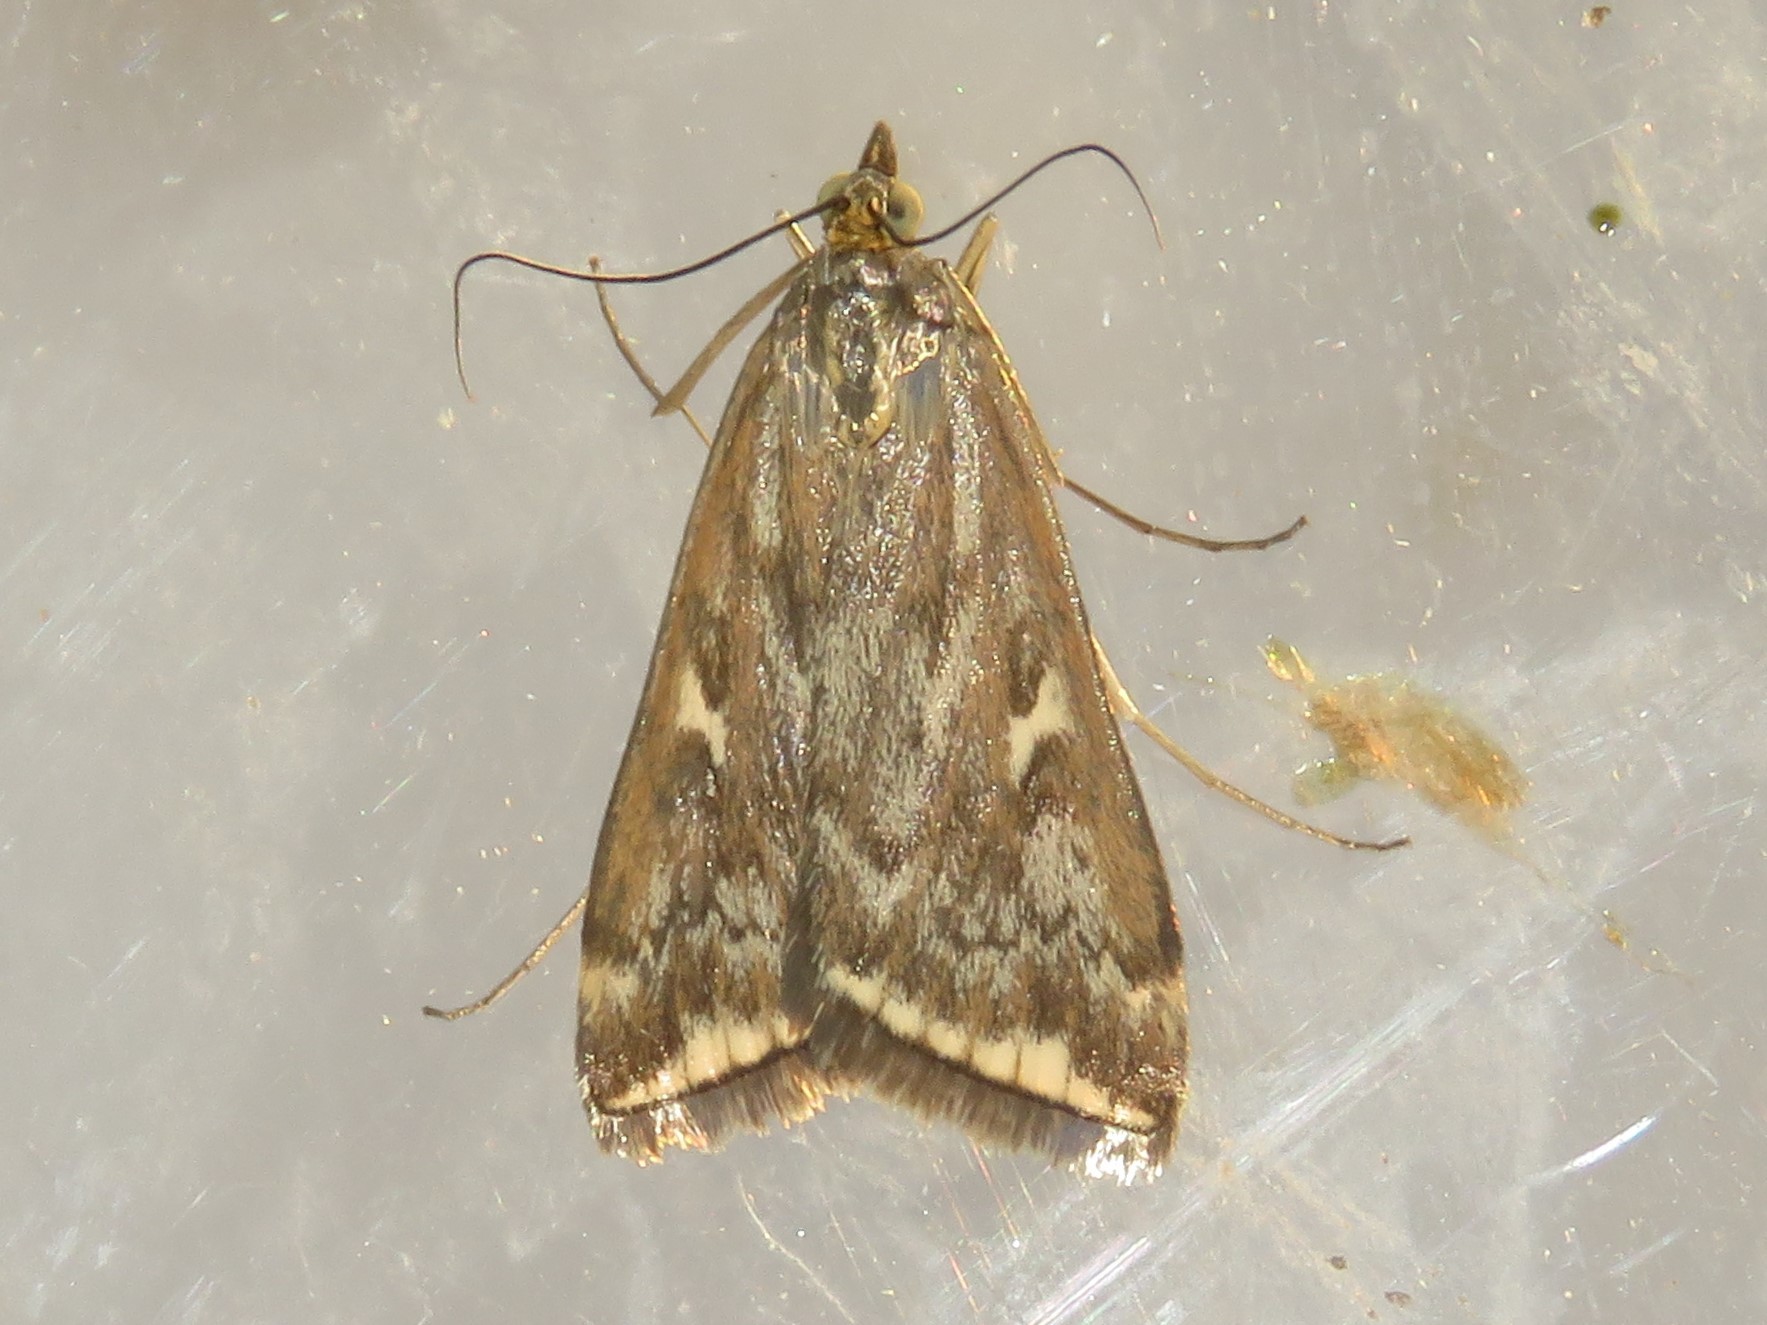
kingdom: Animalia
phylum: Arthropoda
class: Insecta
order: Lepidoptera
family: Crambidae
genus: Loxostege
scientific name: Loxostege
